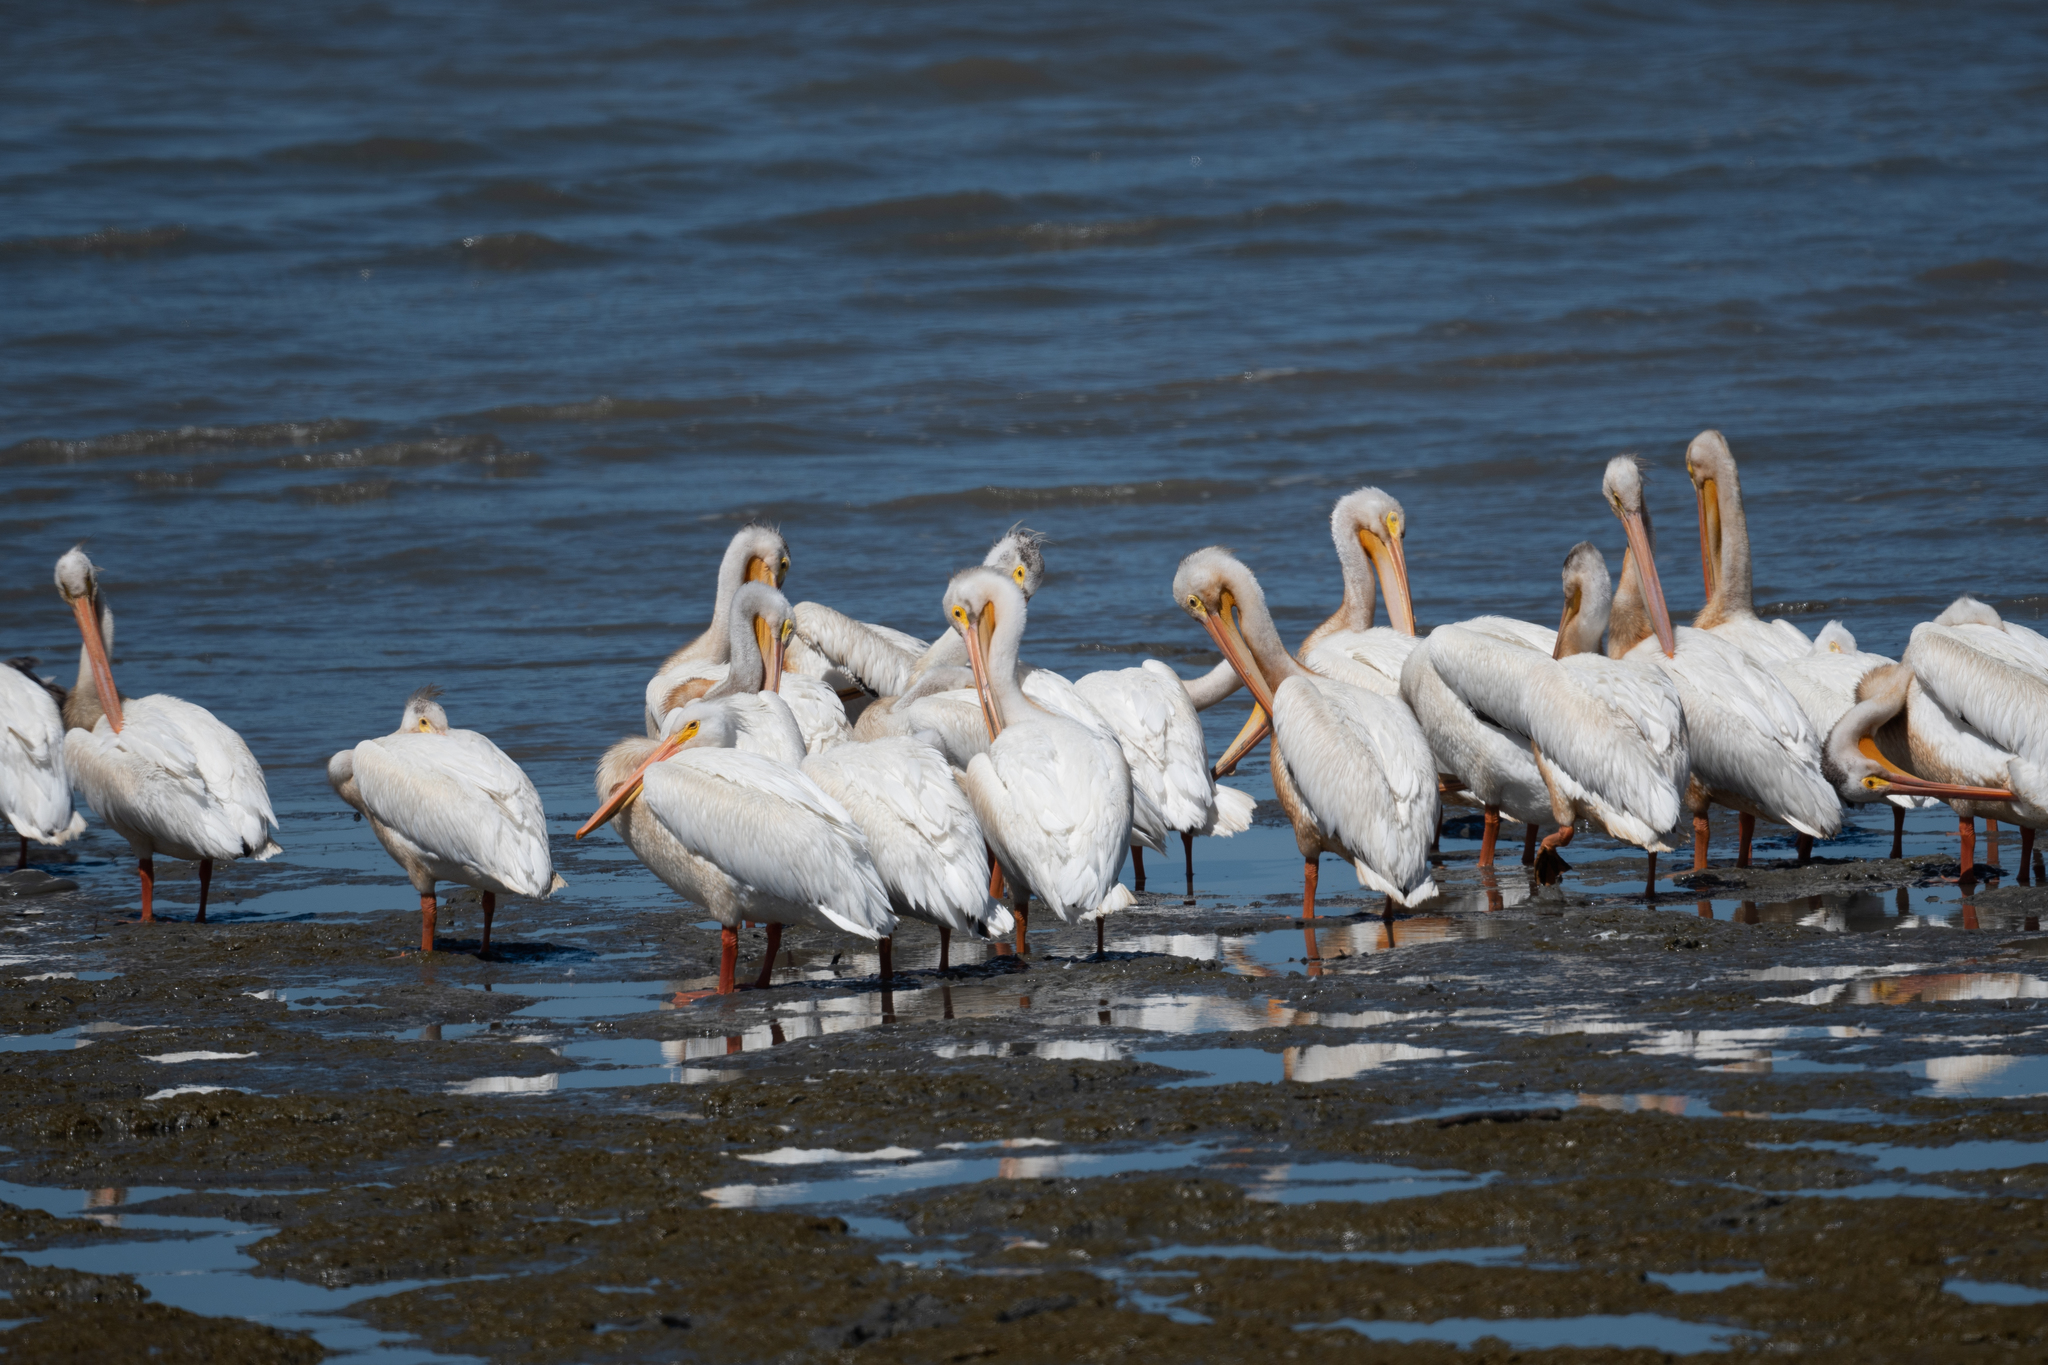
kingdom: Animalia
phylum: Chordata
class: Aves
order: Pelecaniformes
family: Pelecanidae
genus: Pelecanus
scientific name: Pelecanus erythrorhynchos
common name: American white pelican
